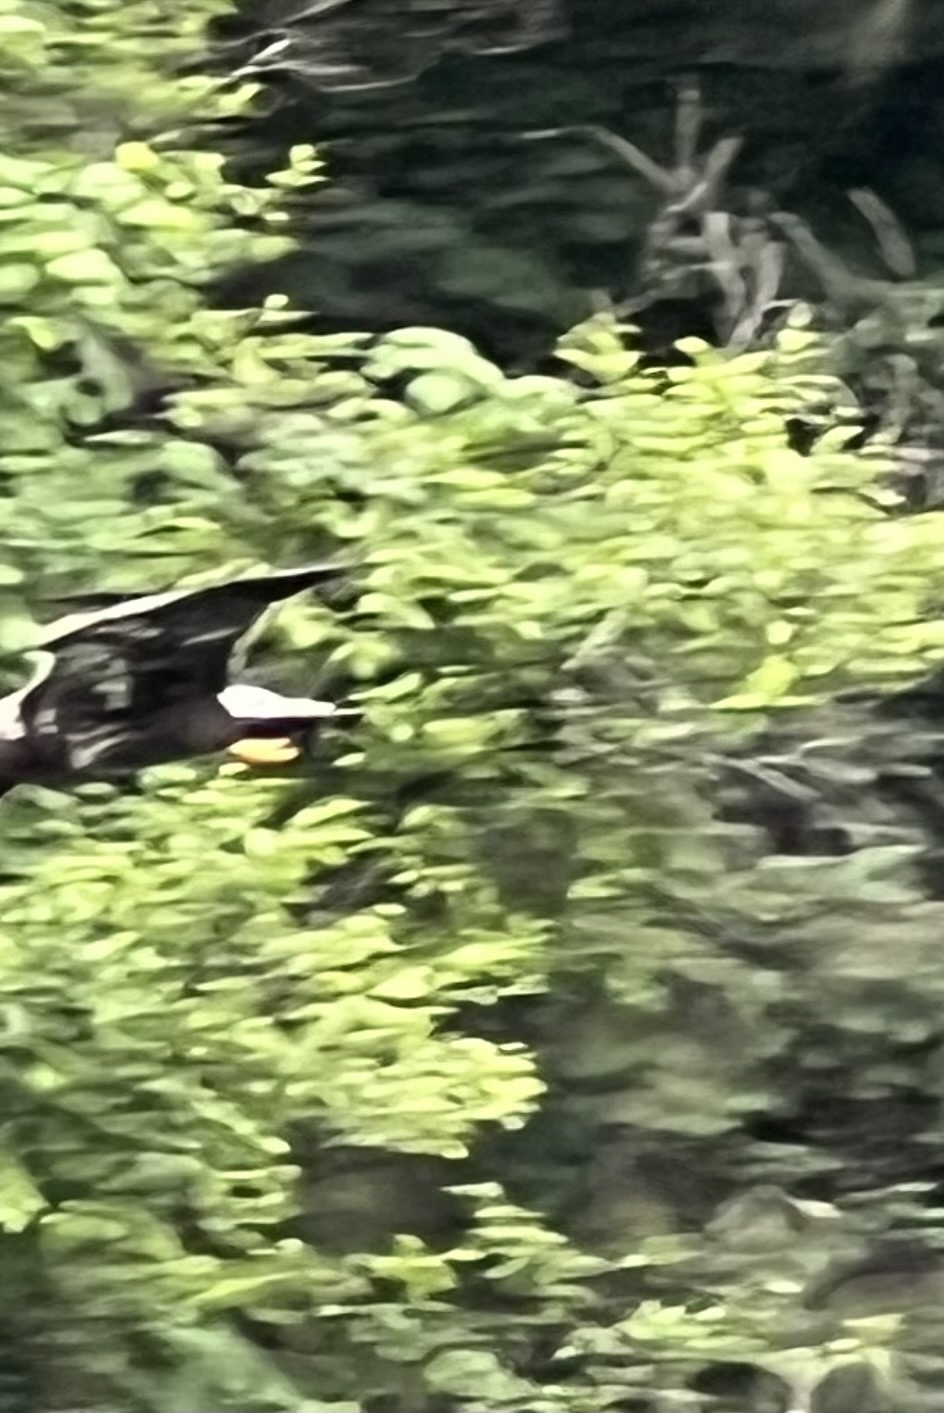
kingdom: Animalia
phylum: Chordata
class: Aves
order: Accipitriformes
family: Accipitridae
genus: Haliaeetus
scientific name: Haliaeetus leucocephalus
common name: Bald eagle
